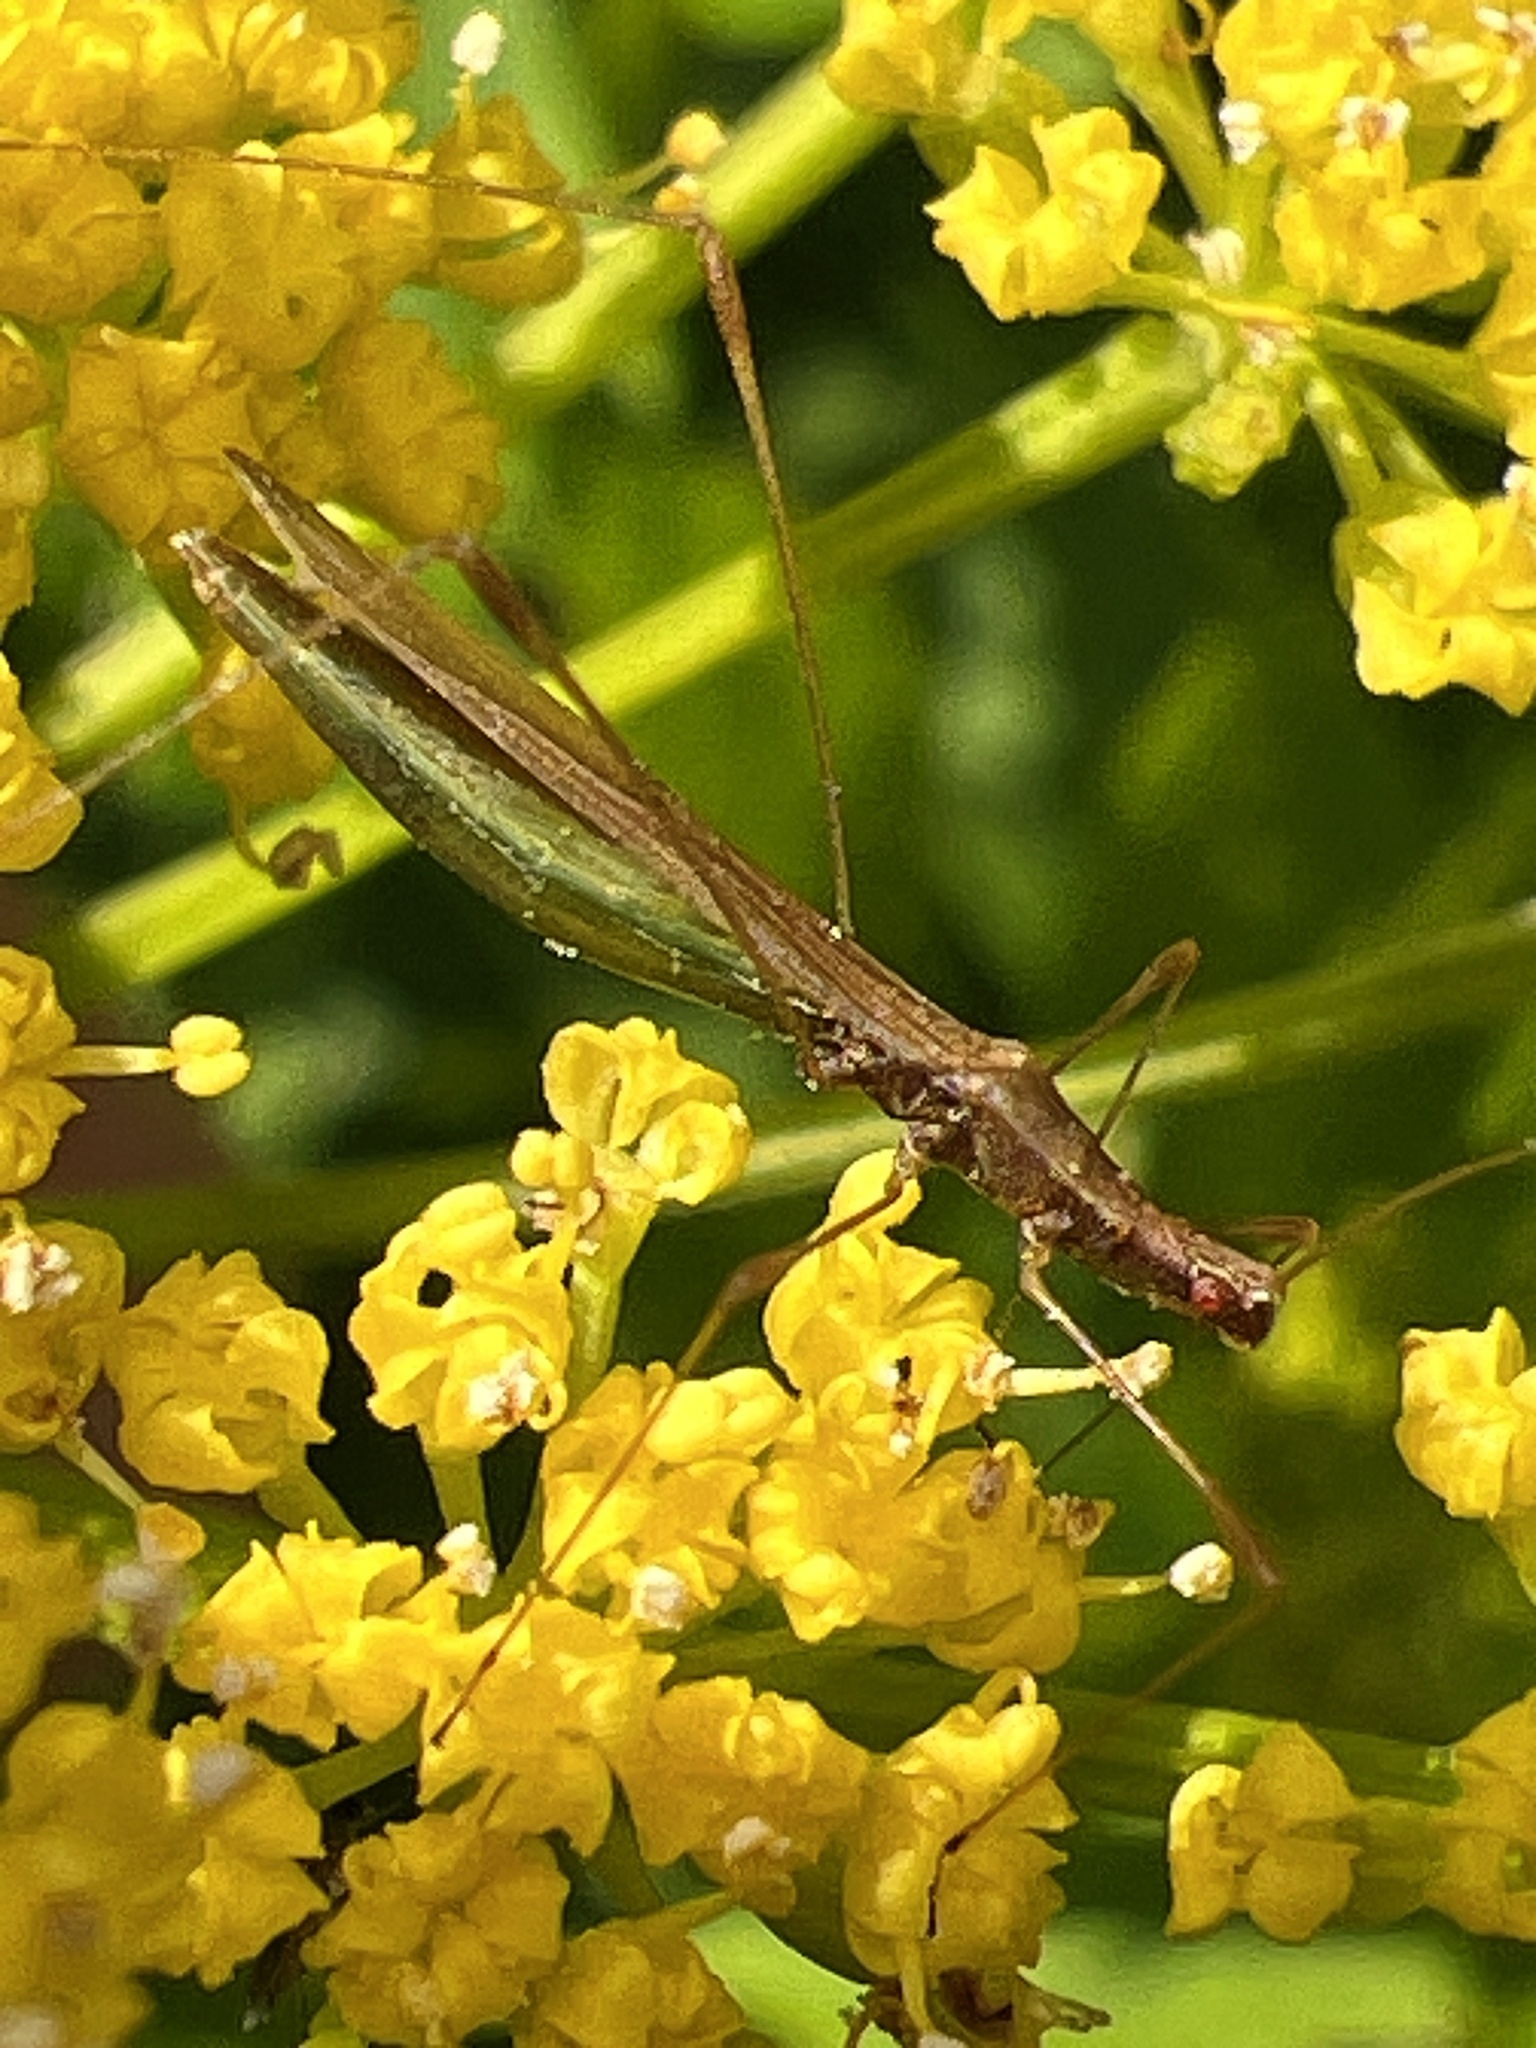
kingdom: Animalia
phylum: Arthropoda
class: Insecta
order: Hemiptera
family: Berytidae
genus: Neoneides
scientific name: Neoneides muticus
